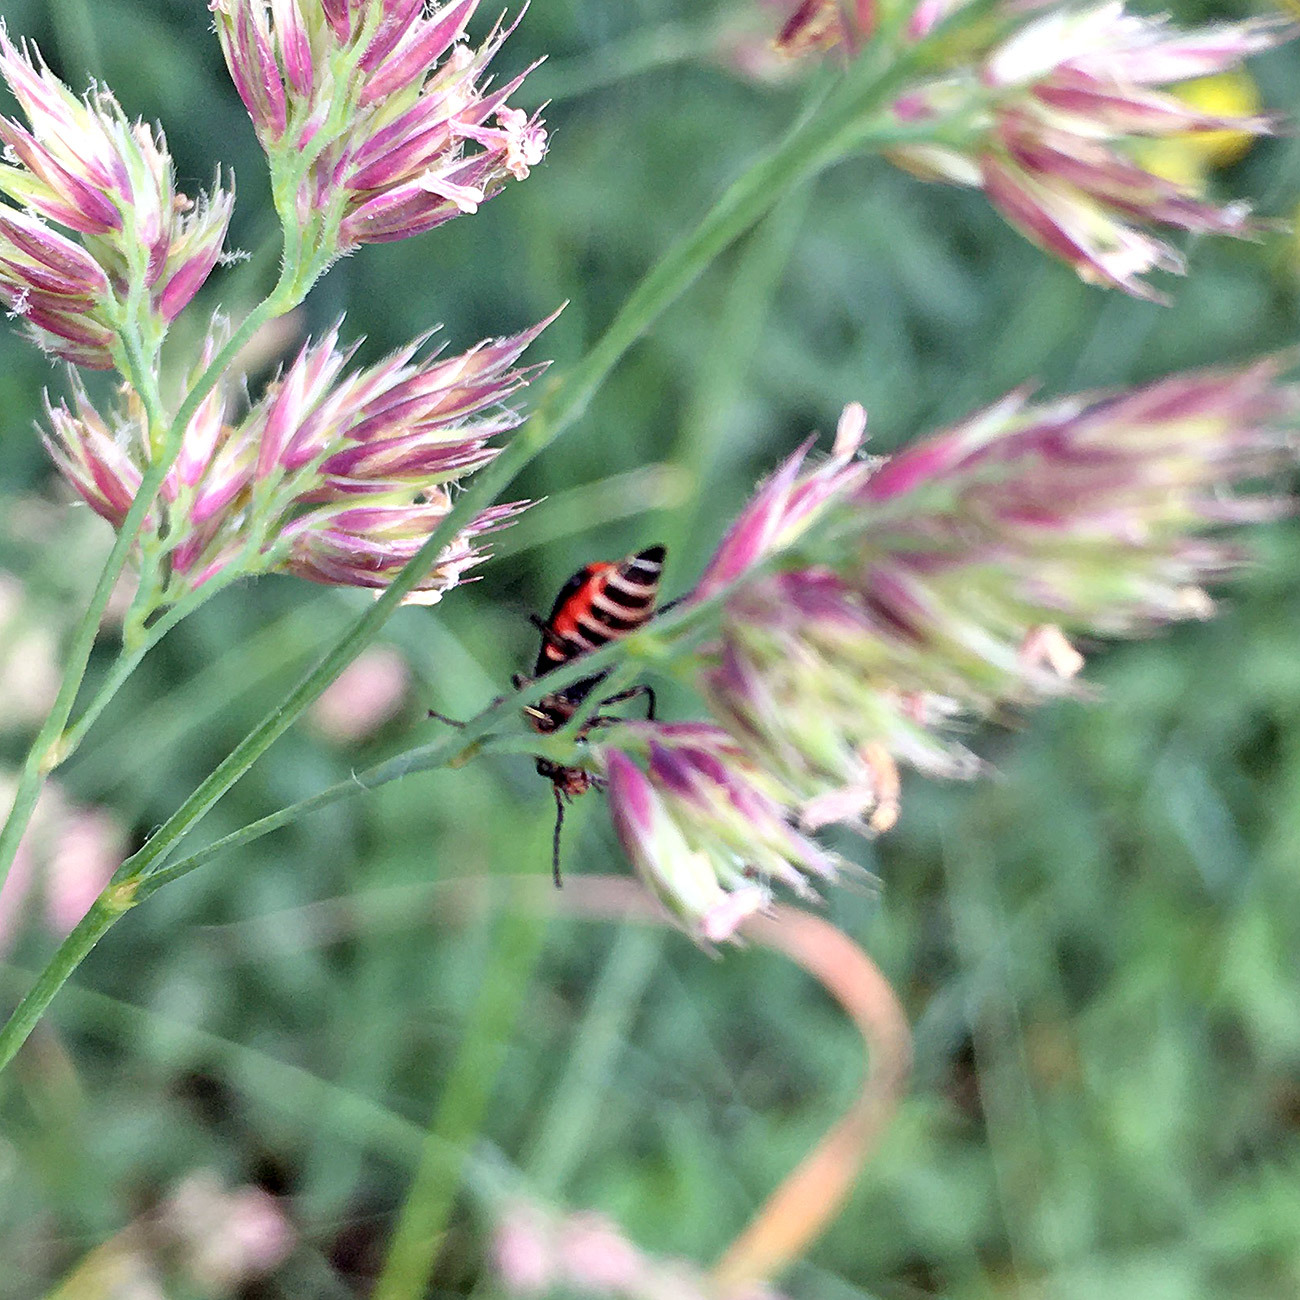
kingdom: Animalia
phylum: Arthropoda
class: Insecta
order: Coleoptera
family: Melyridae
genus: Malachius
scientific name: Malachius bipustulatus
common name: Malachite beetle
